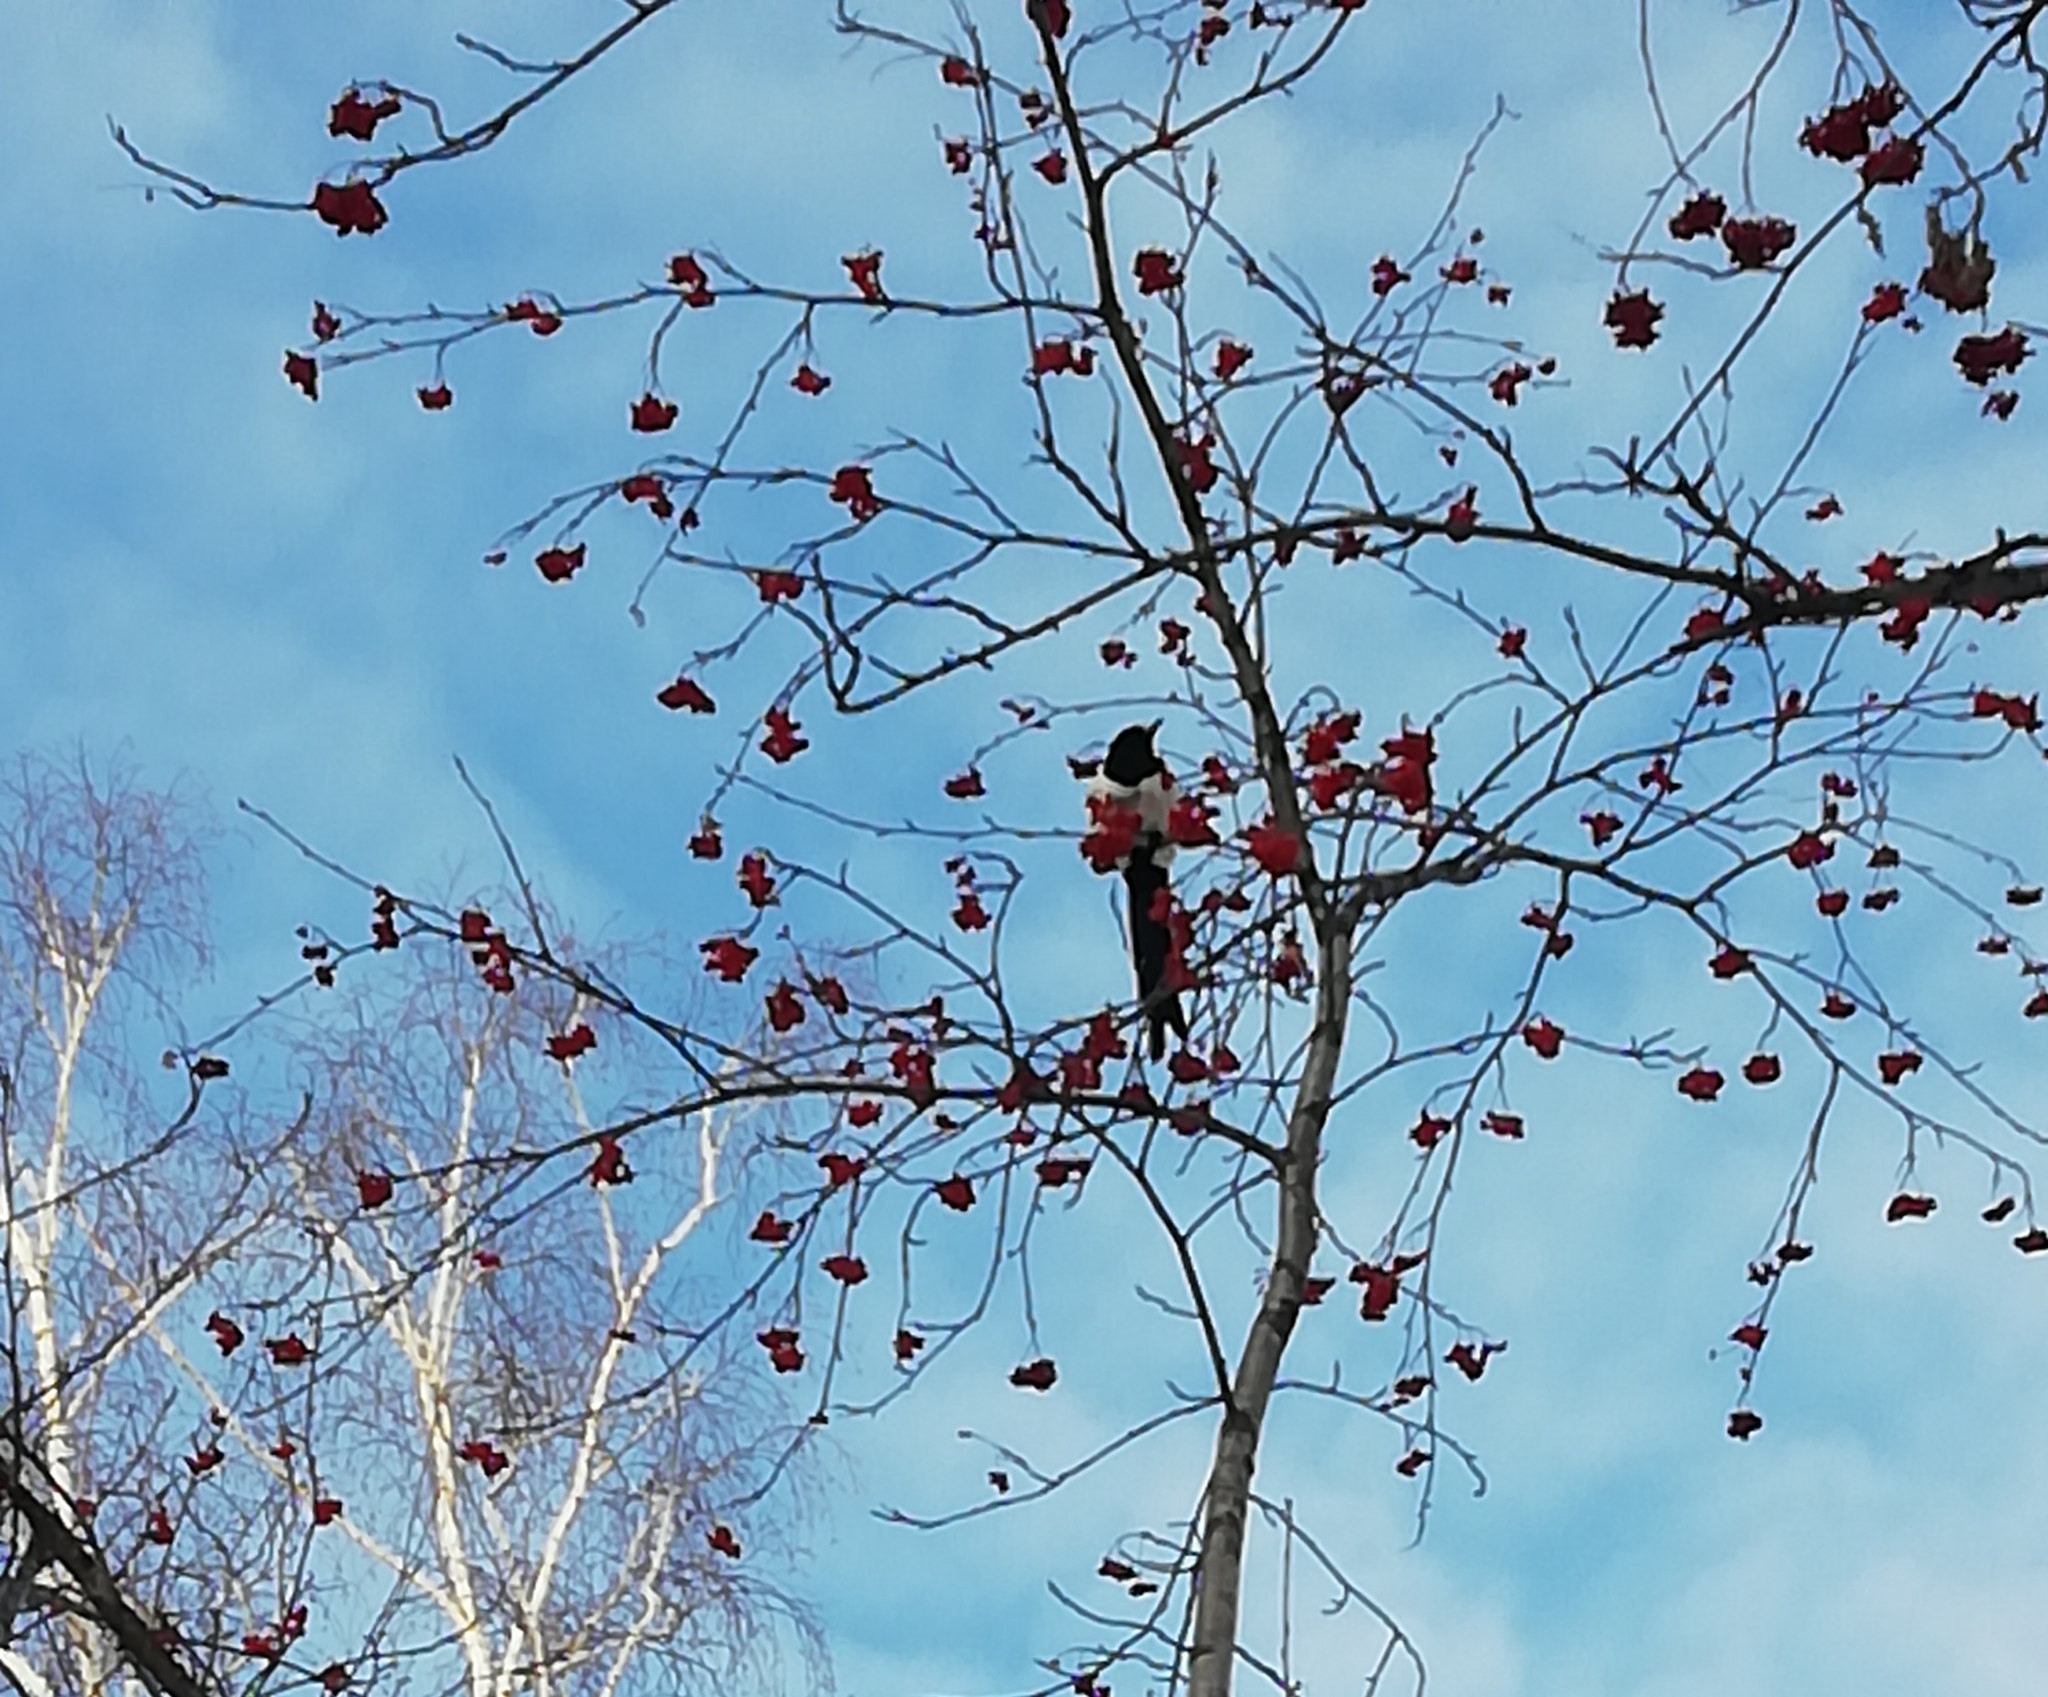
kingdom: Animalia
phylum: Chordata
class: Aves
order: Passeriformes
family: Corvidae
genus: Pica
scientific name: Pica pica
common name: Eurasian magpie
